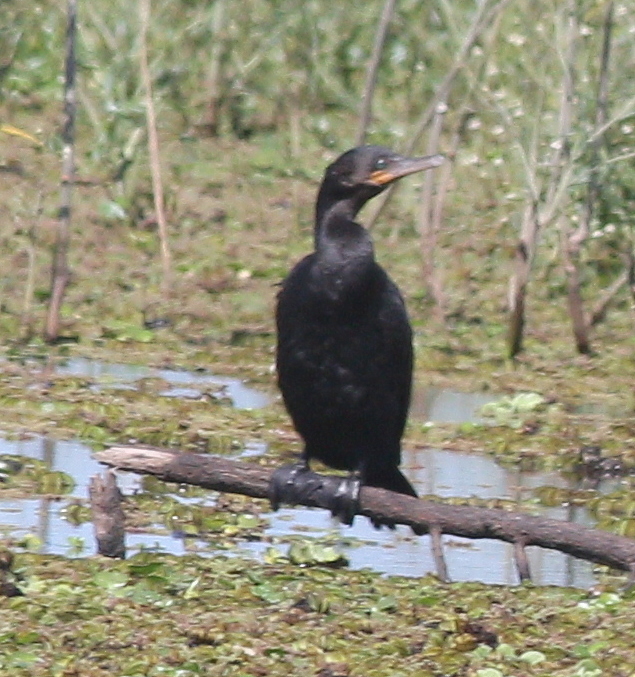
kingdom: Animalia
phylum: Chordata
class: Aves
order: Suliformes
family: Phalacrocoracidae
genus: Phalacrocorax
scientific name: Phalacrocorax brasilianus
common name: Neotropic cormorant
